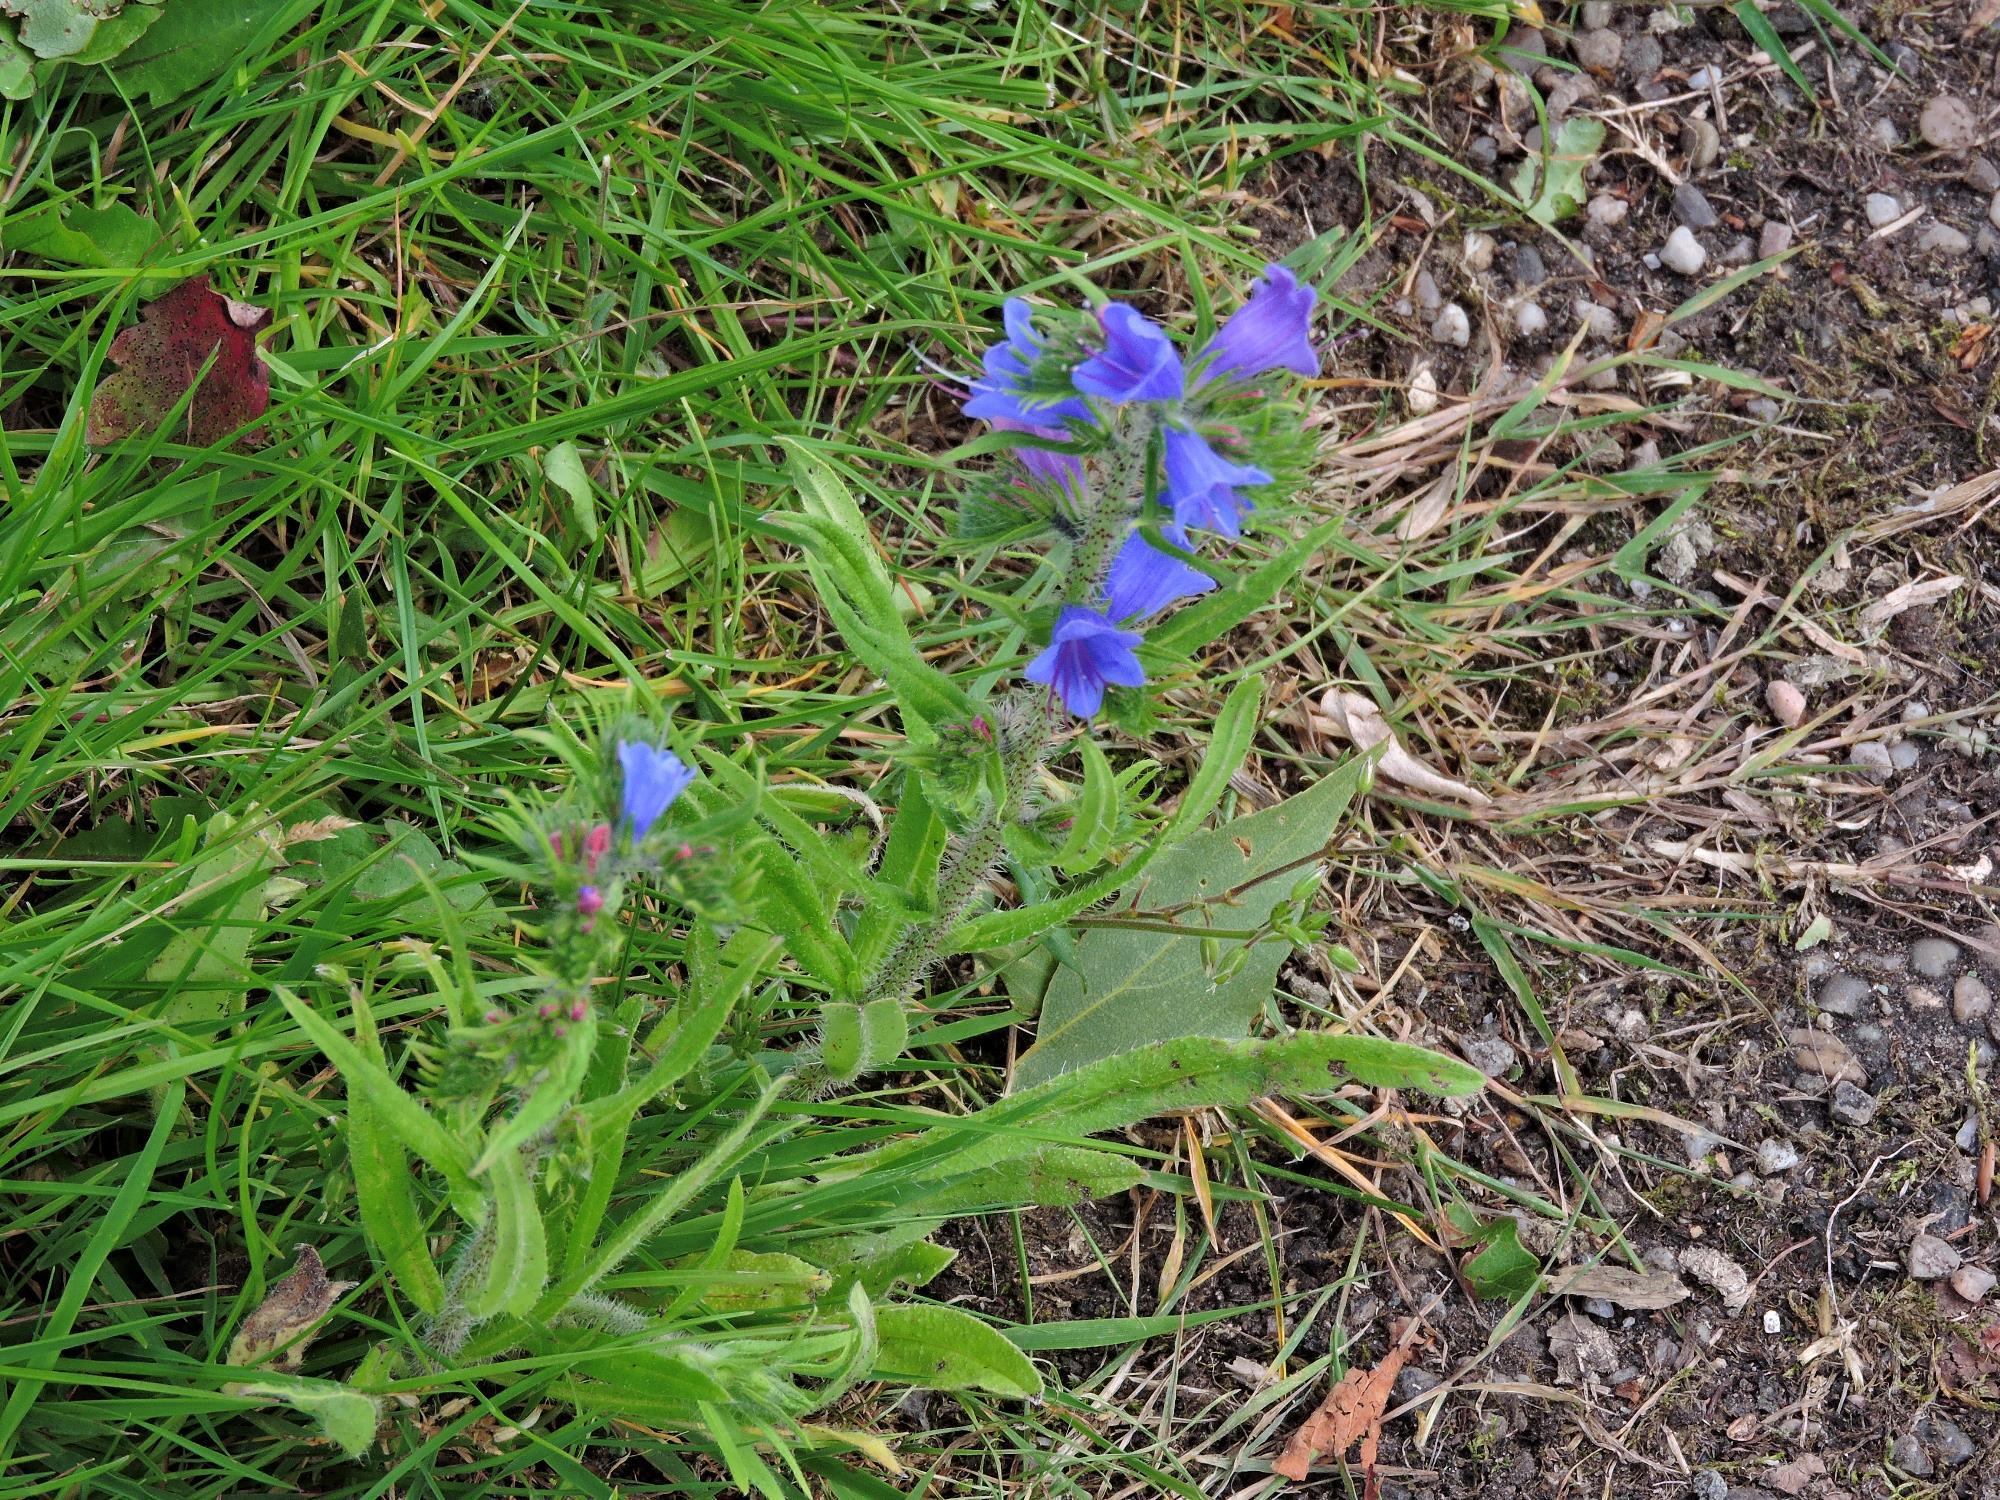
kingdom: Plantae
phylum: Tracheophyta
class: Magnoliopsida
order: Boraginales
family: Boraginaceae
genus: Echium
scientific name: Echium vulgare
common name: Common viper's bugloss
